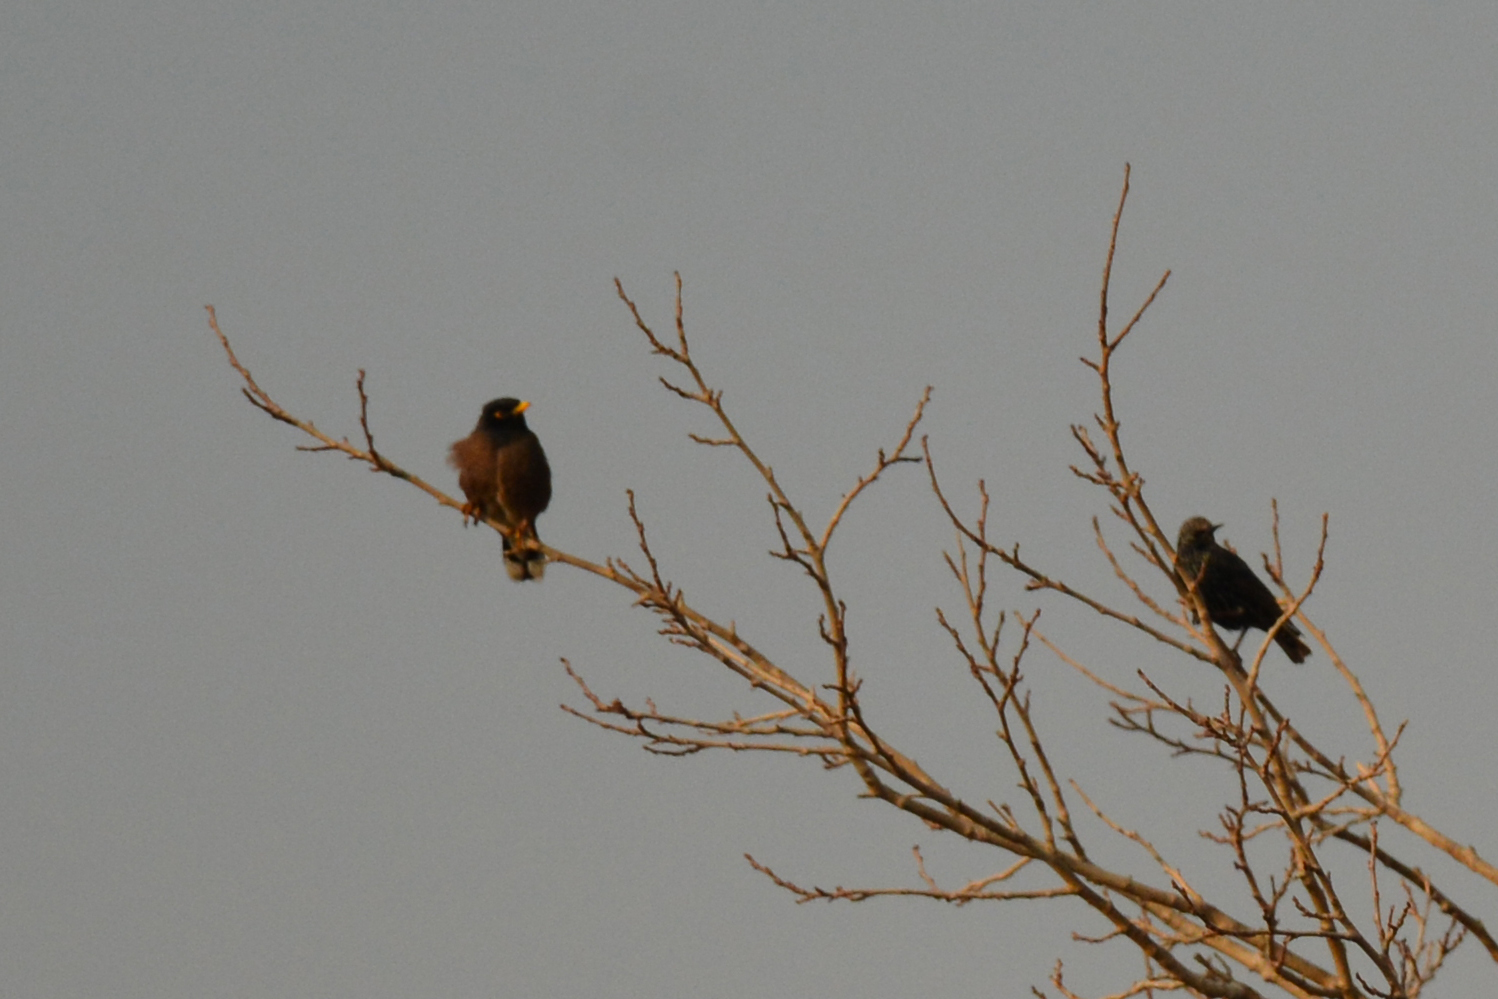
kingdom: Animalia
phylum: Chordata
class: Aves
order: Passeriformes
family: Sturnidae
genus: Acridotheres
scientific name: Acridotheres tristis
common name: Common myna
